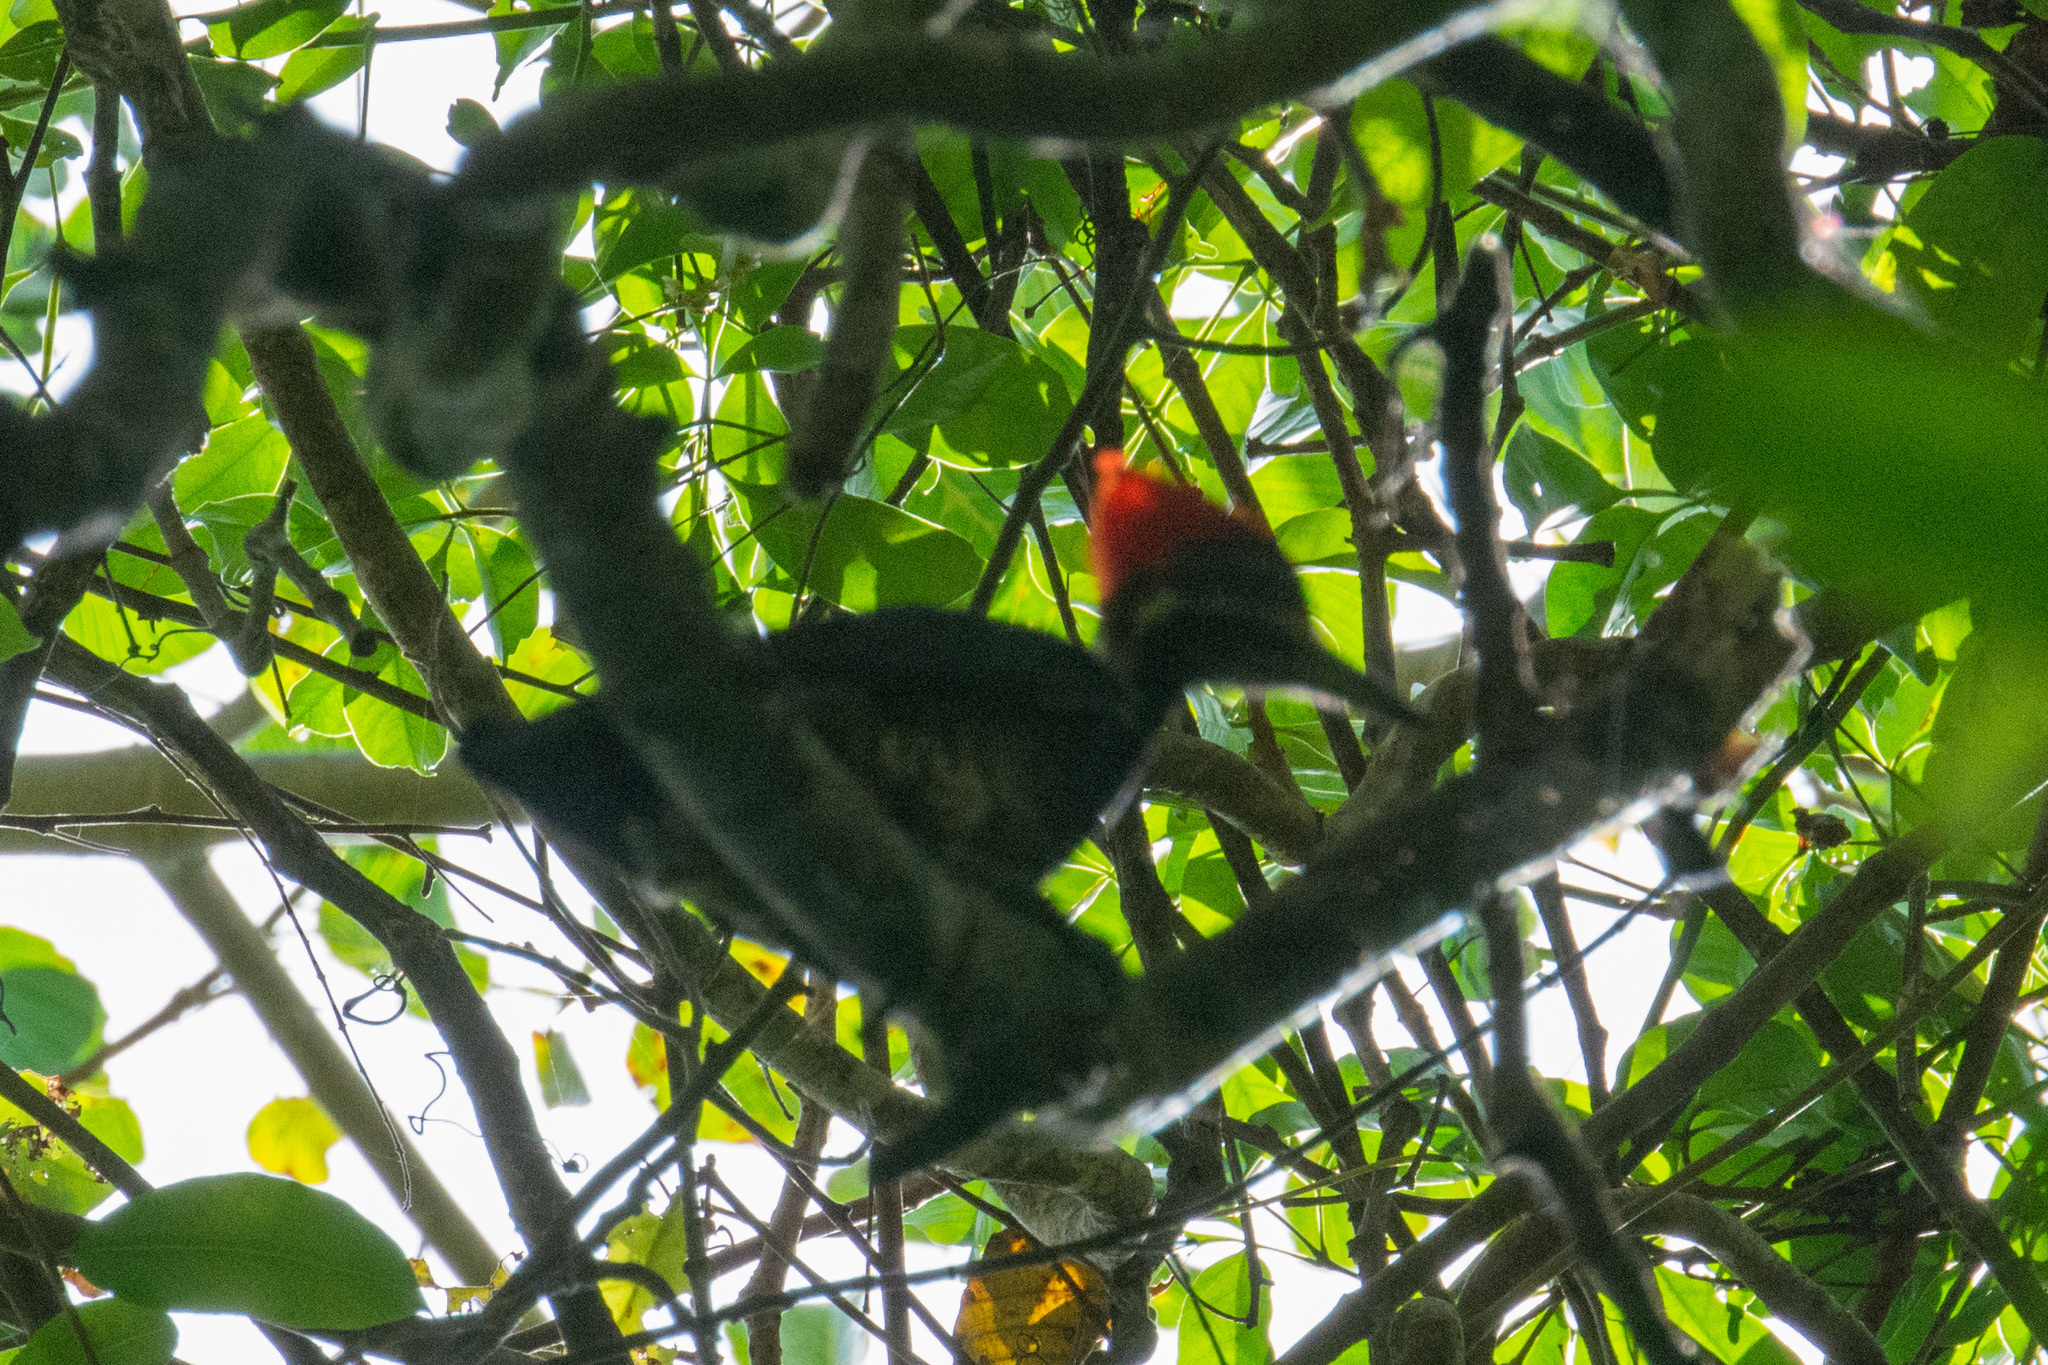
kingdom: Animalia
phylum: Chordata
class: Aves
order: Piciformes
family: Picidae
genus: Dryocopus
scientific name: Dryocopus lineatus
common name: Lineated woodpecker
